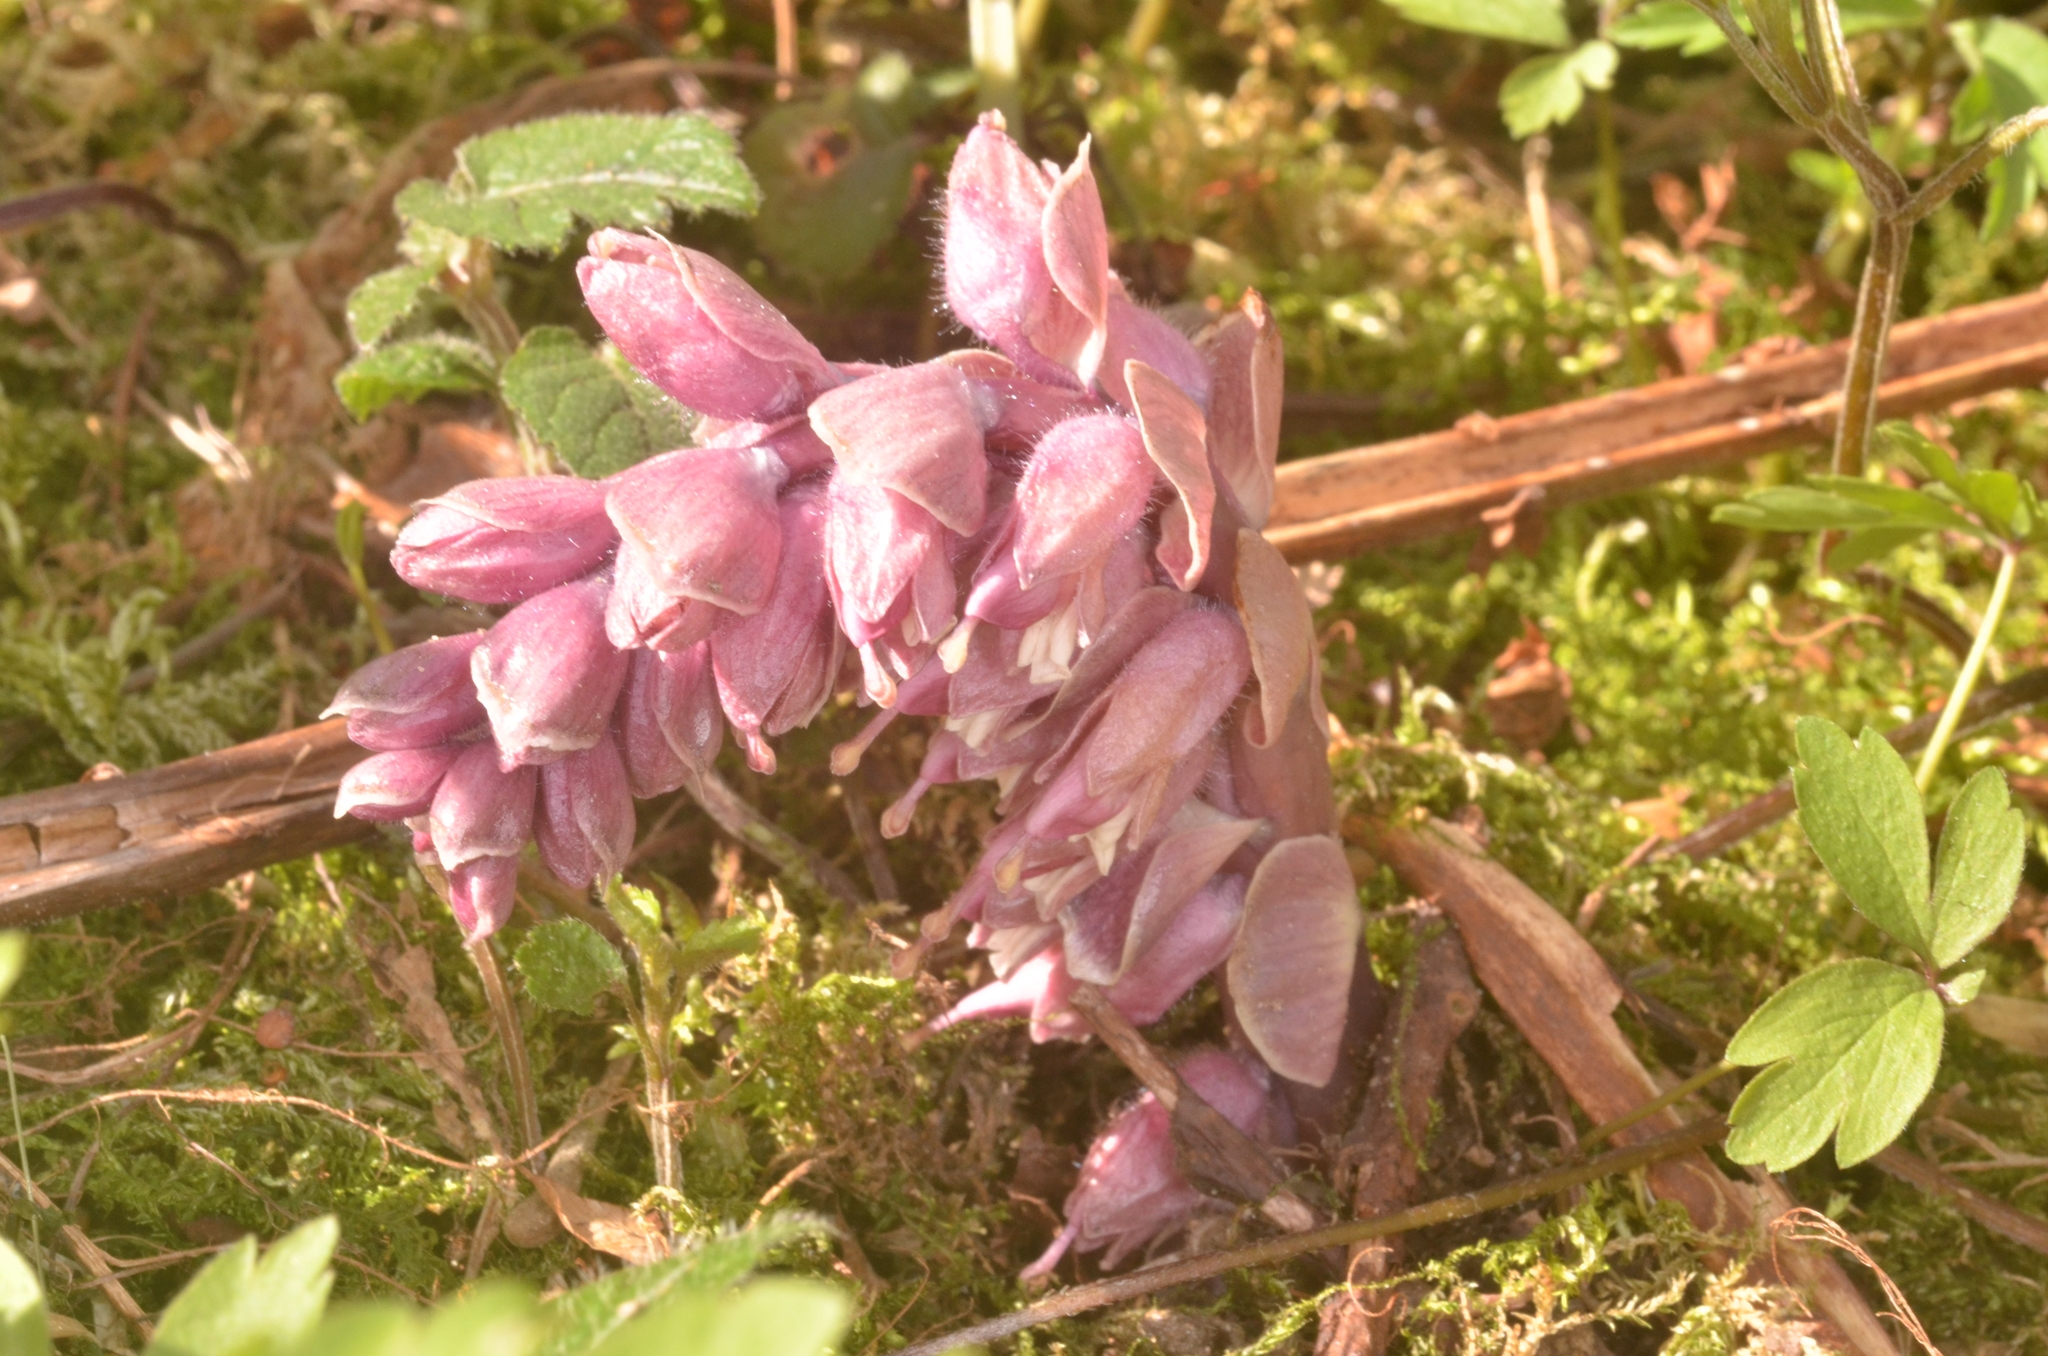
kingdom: Plantae
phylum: Tracheophyta
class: Magnoliopsida
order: Lamiales
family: Orobanchaceae
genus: Lathraea
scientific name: Lathraea squamaria
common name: Toothwort
